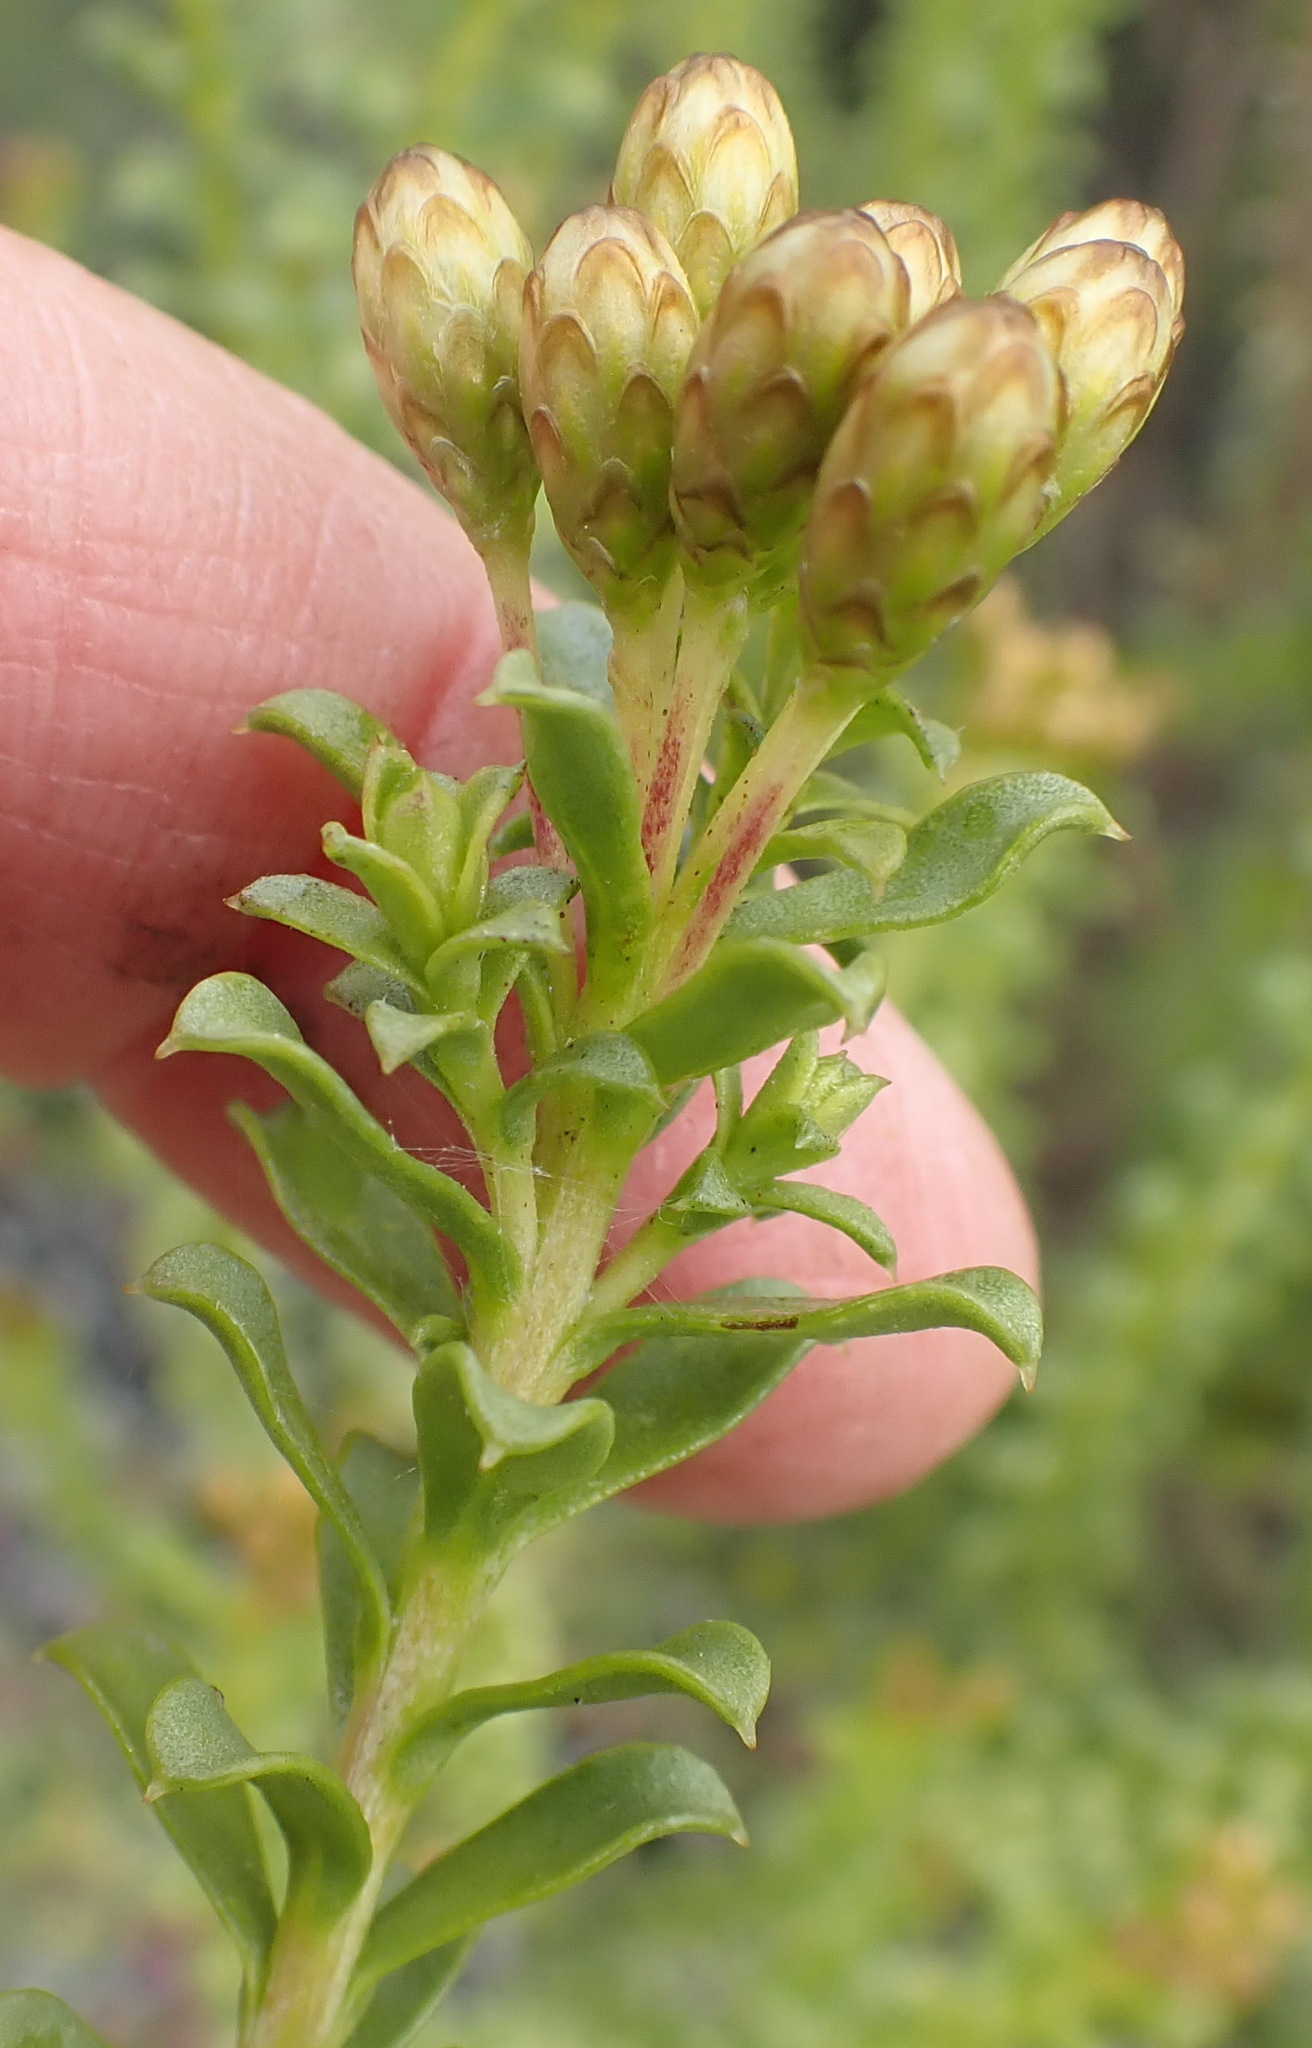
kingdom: Plantae
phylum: Tracheophyta
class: Magnoliopsida
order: Asterales
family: Asteraceae
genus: Oedera
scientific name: Oedera squarrosa
